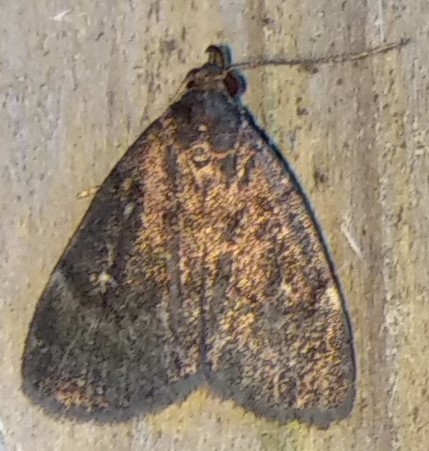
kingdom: Animalia
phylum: Arthropoda
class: Insecta
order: Lepidoptera
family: Erebidae
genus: Idia
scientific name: Idia rotundalis
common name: Rotund idia moth
